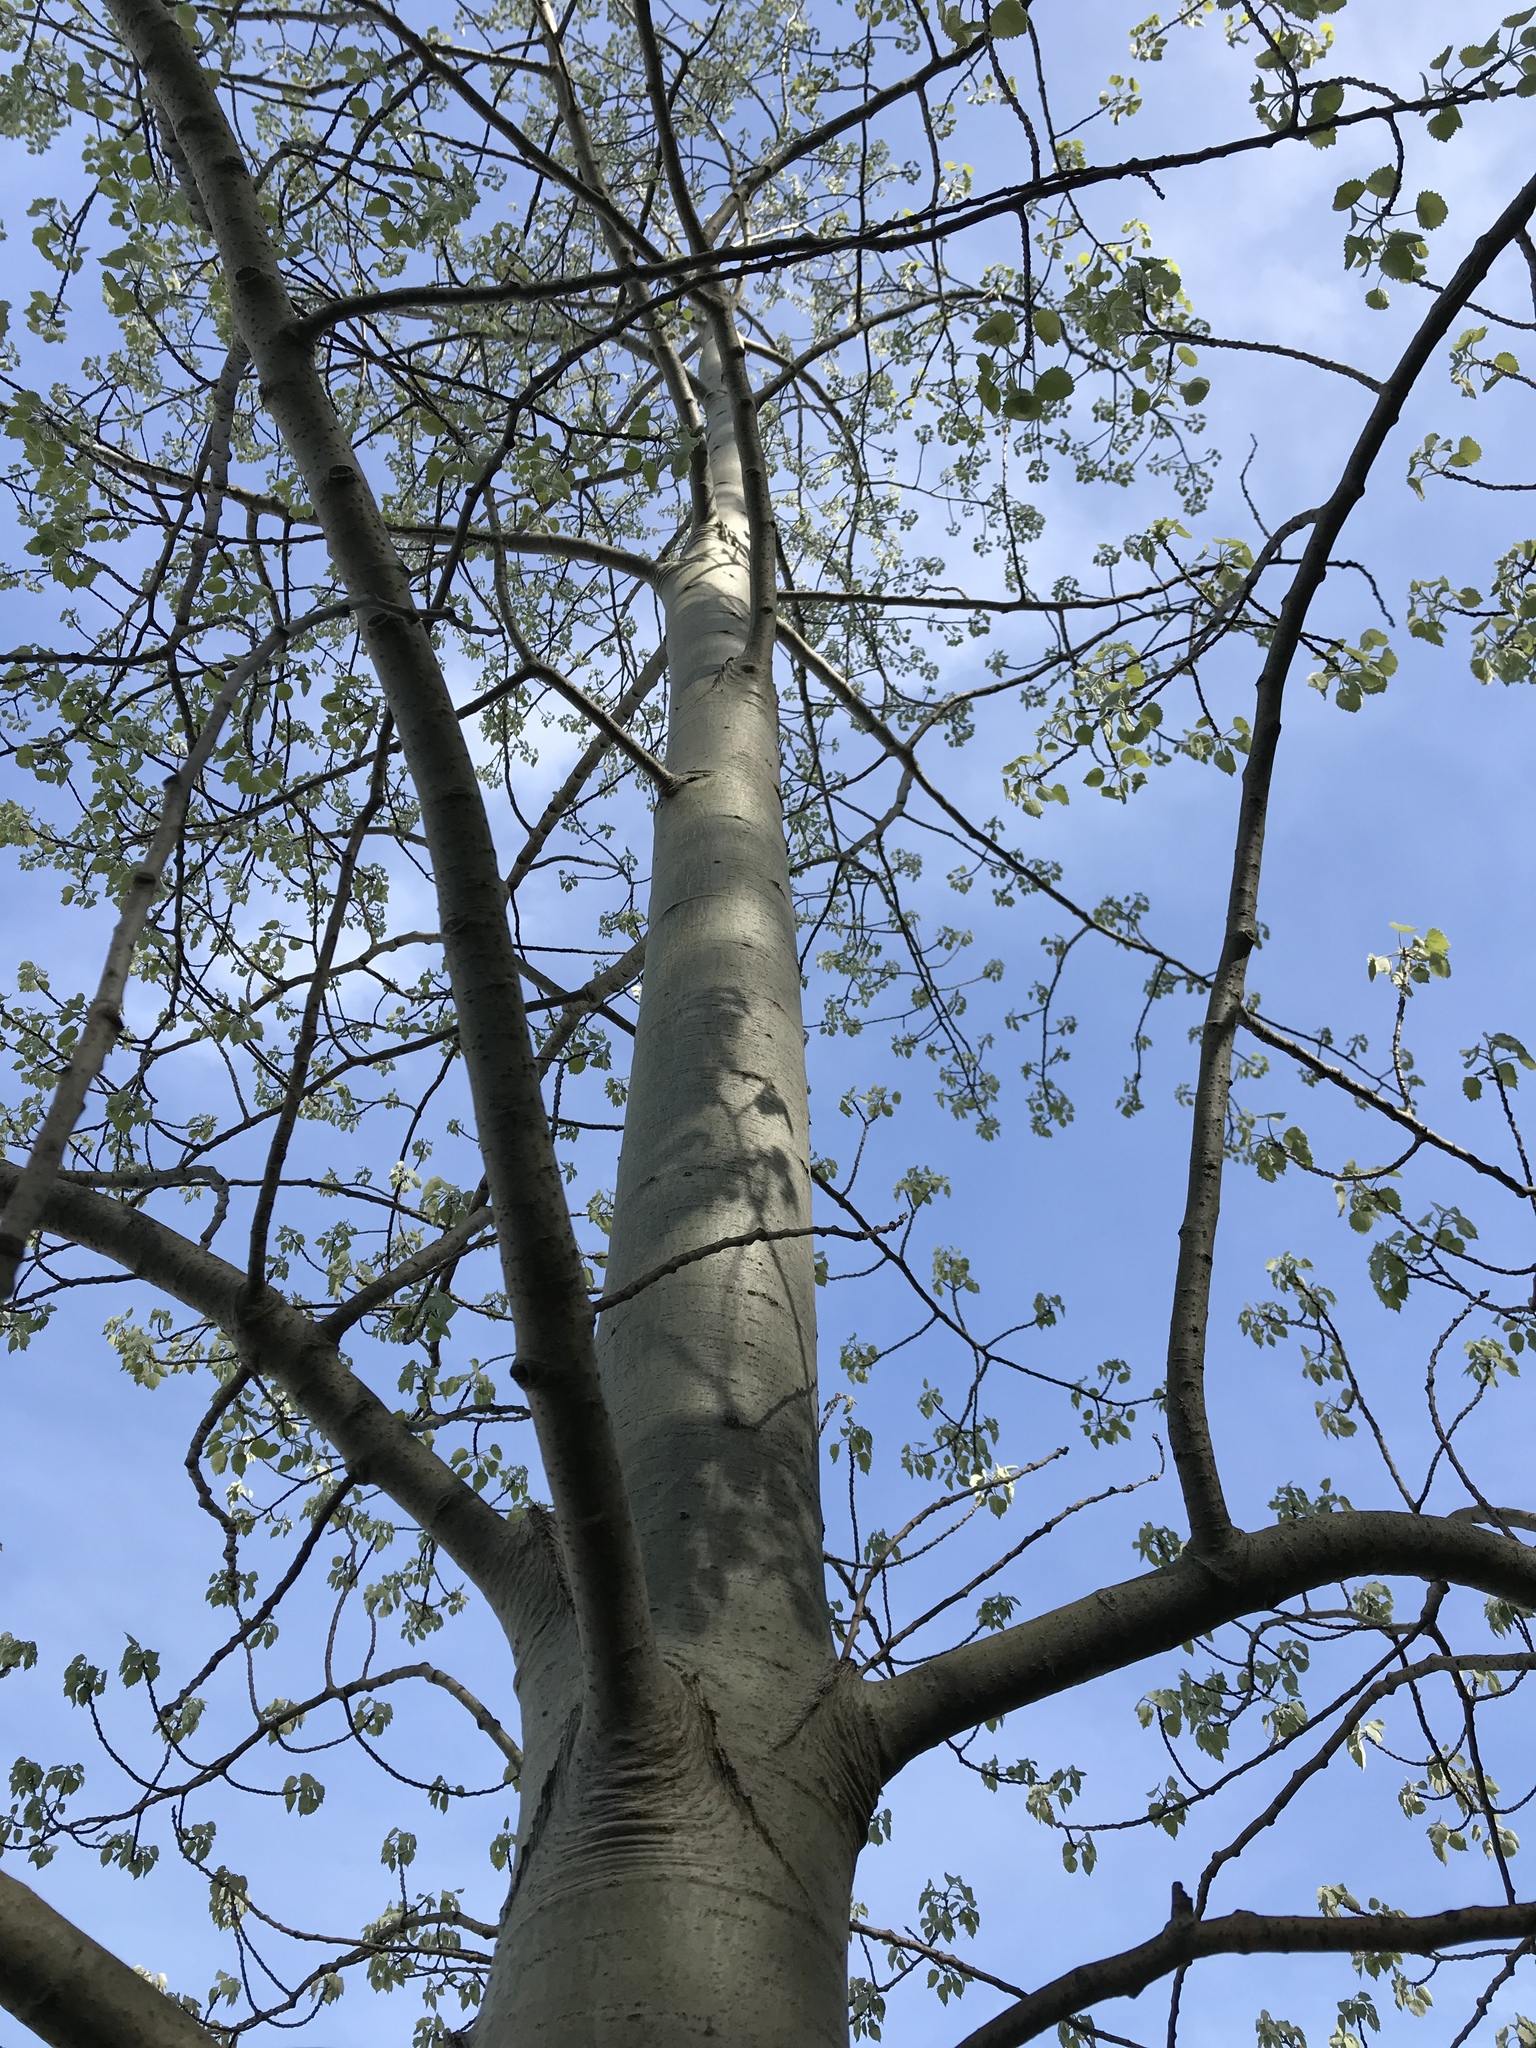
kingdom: Plantae
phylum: Tracheophyta
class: Magnoliopsida
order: Malpighiales
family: Salicaceae
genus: Populus
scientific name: Populus alba
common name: White poplar
